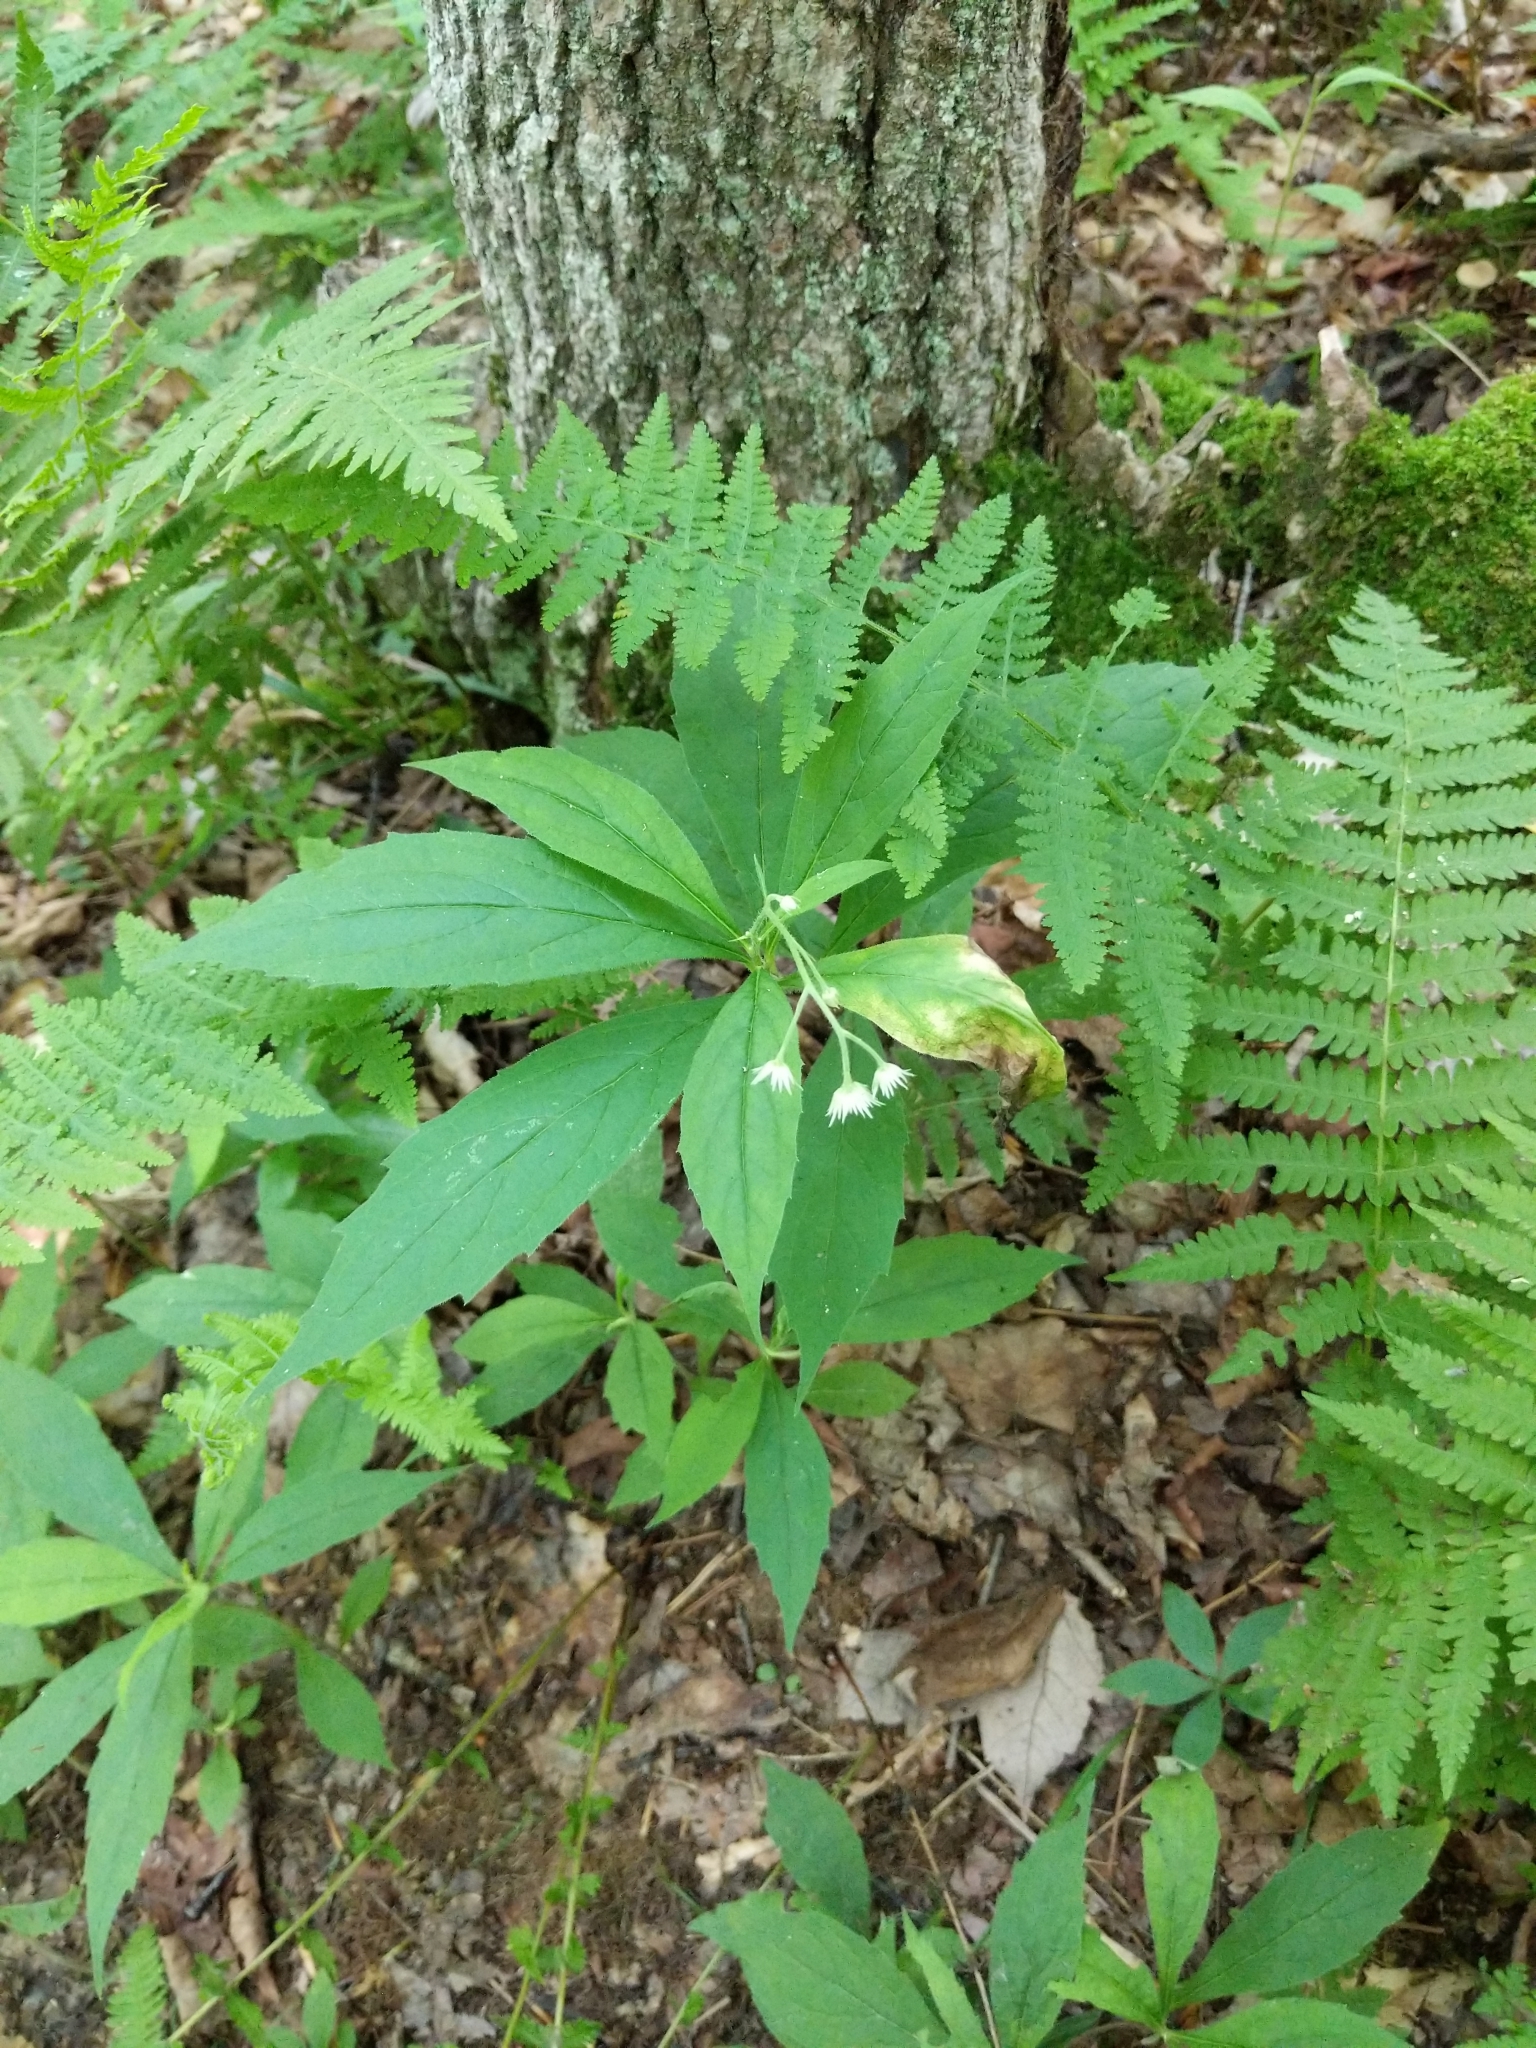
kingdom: Plantae
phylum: Tracheophyta
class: Magnoliopsida
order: Asterales
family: Asteraceae
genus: Oclemena
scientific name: Oclemena acuminata
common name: Mountain aster
